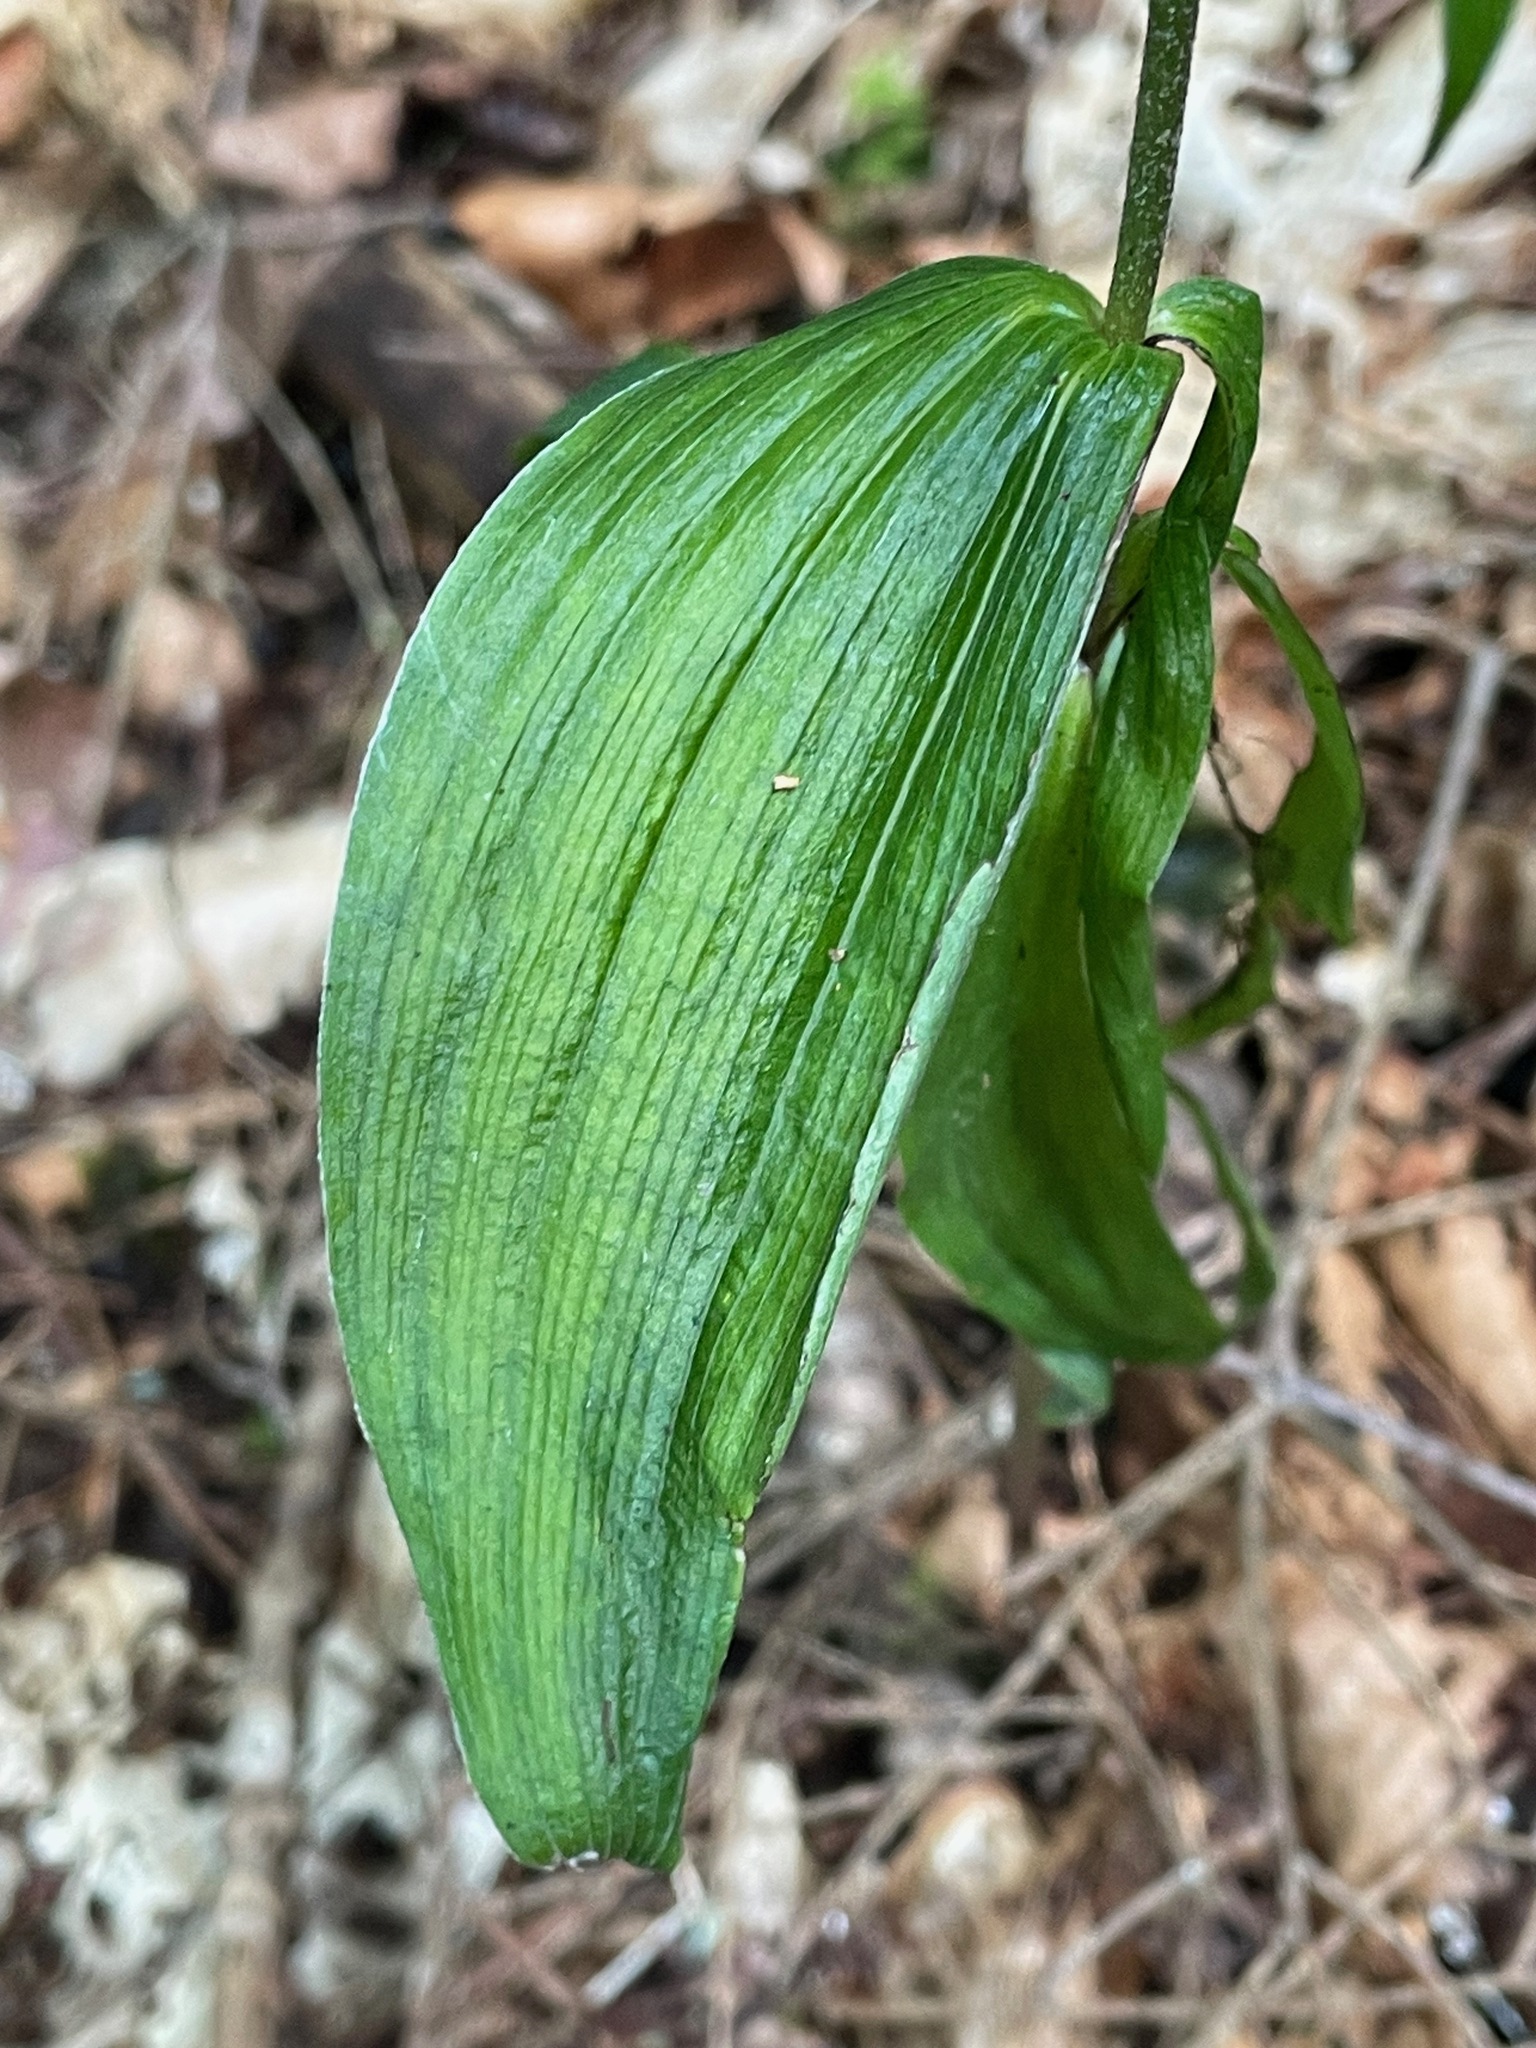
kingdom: Plantae
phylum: Tracheophyta
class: Liliopsida
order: Asparagales
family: Orchidaceae
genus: Epipactis
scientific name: Epipactis helleborine
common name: Broad-leaved helleborine
